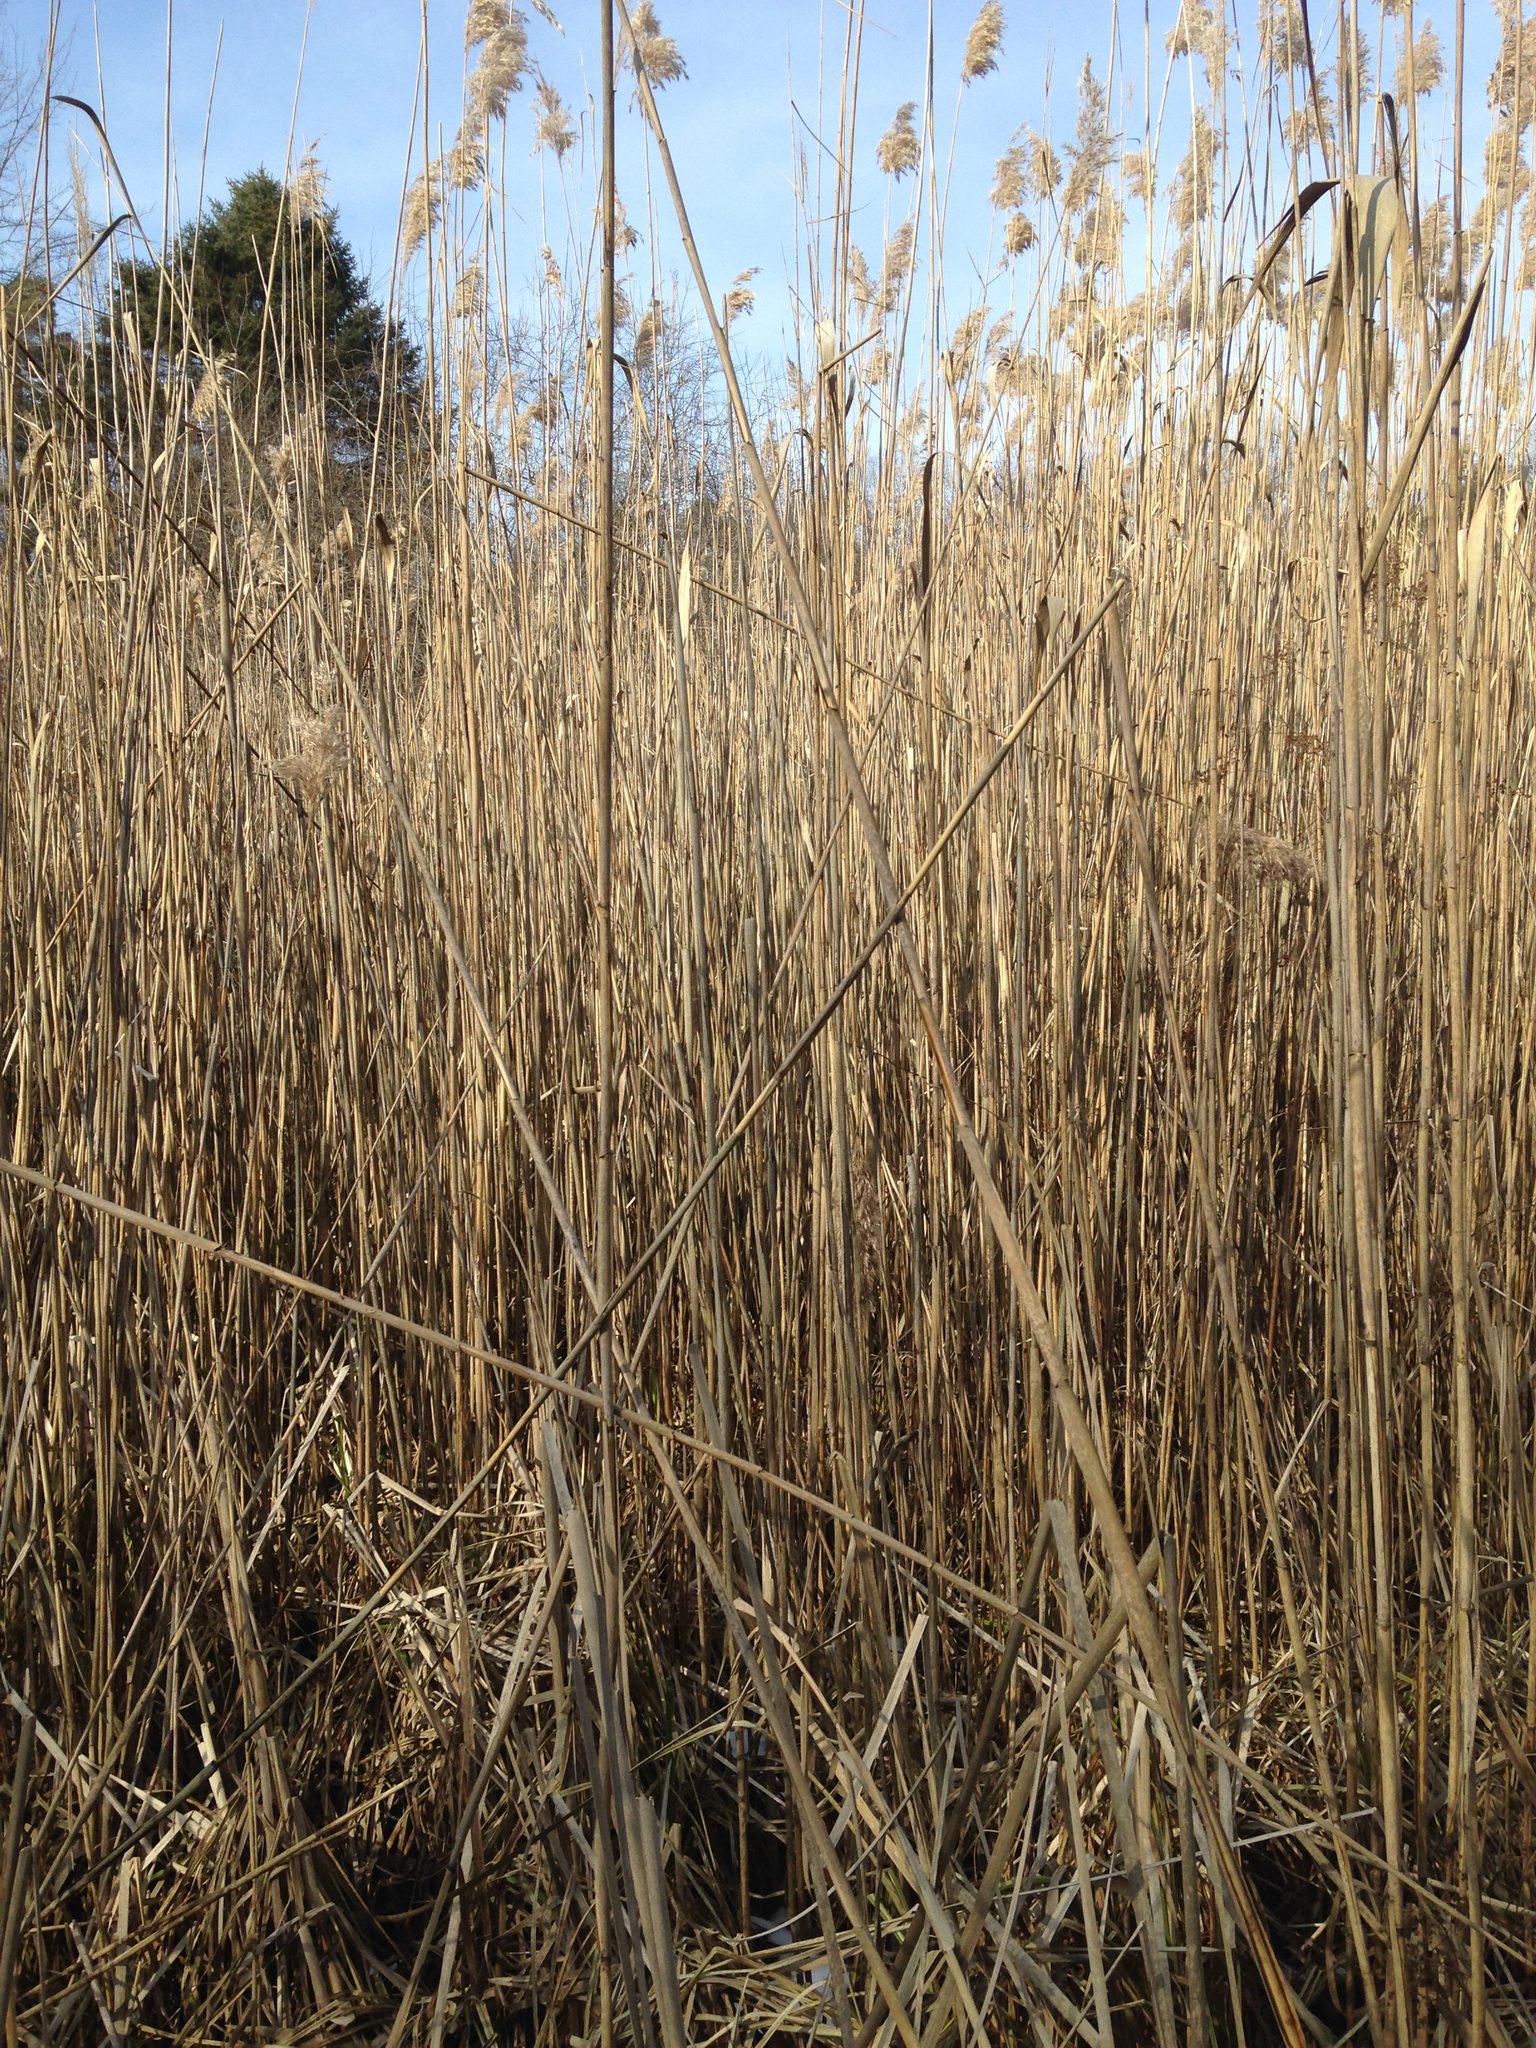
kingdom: Plantae
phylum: Tracheophyta
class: Liliopsida
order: Poales
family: Poaceae
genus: Phragmites
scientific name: Phragmites australis
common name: Common reed
